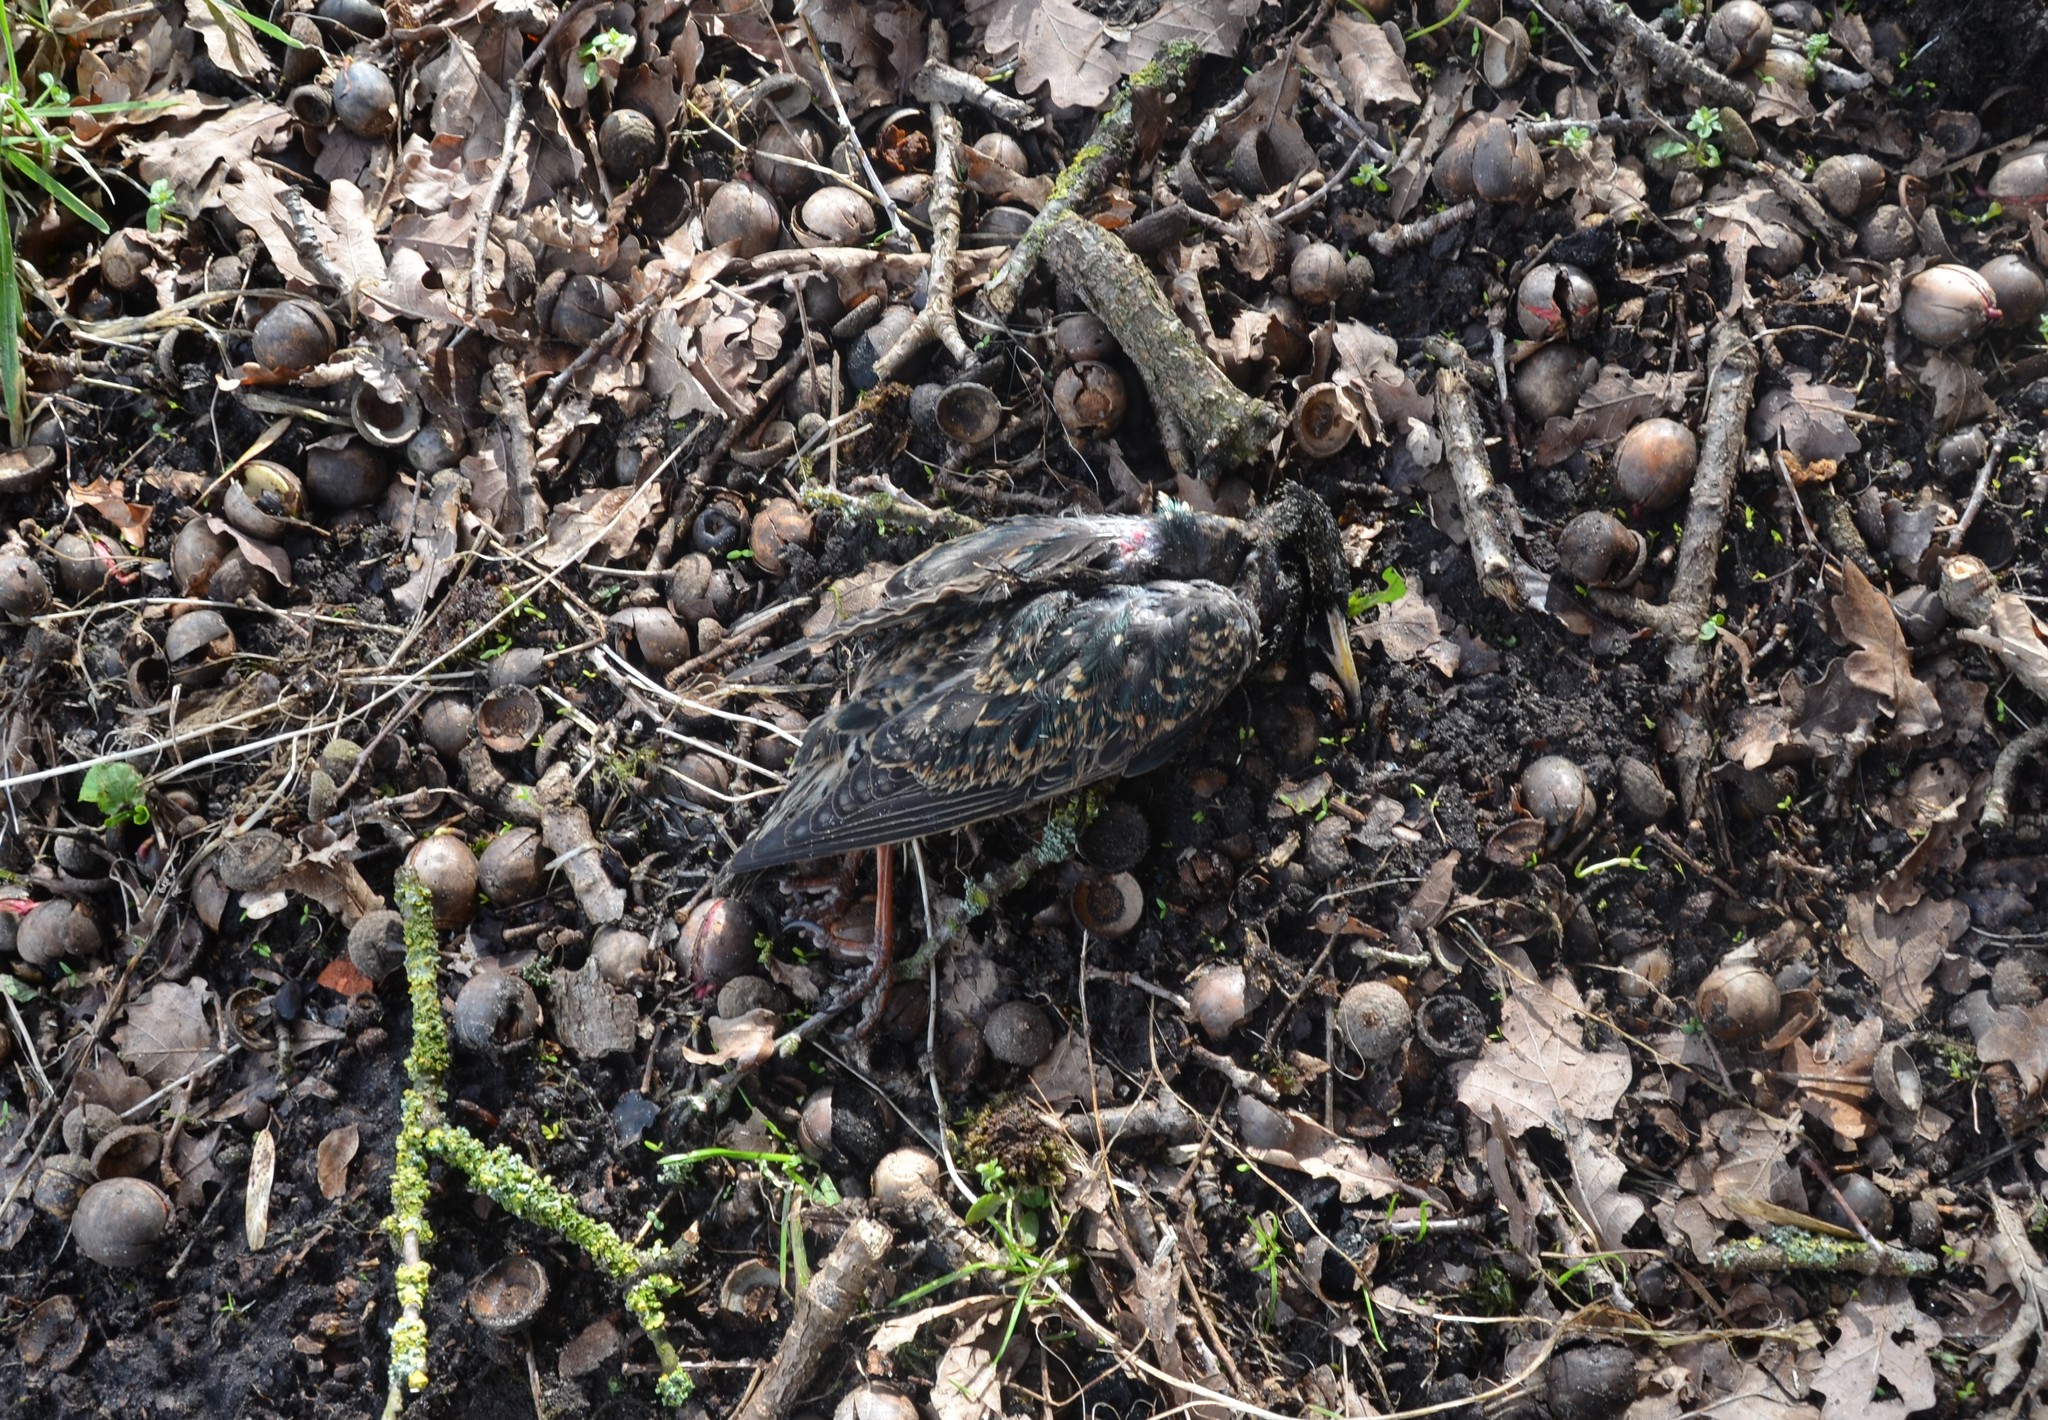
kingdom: Animalia
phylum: Chordata
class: Aves
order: Passeriformes
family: Sturnidae
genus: Sturnus
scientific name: Sturnus vulgaris
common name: Common starling
